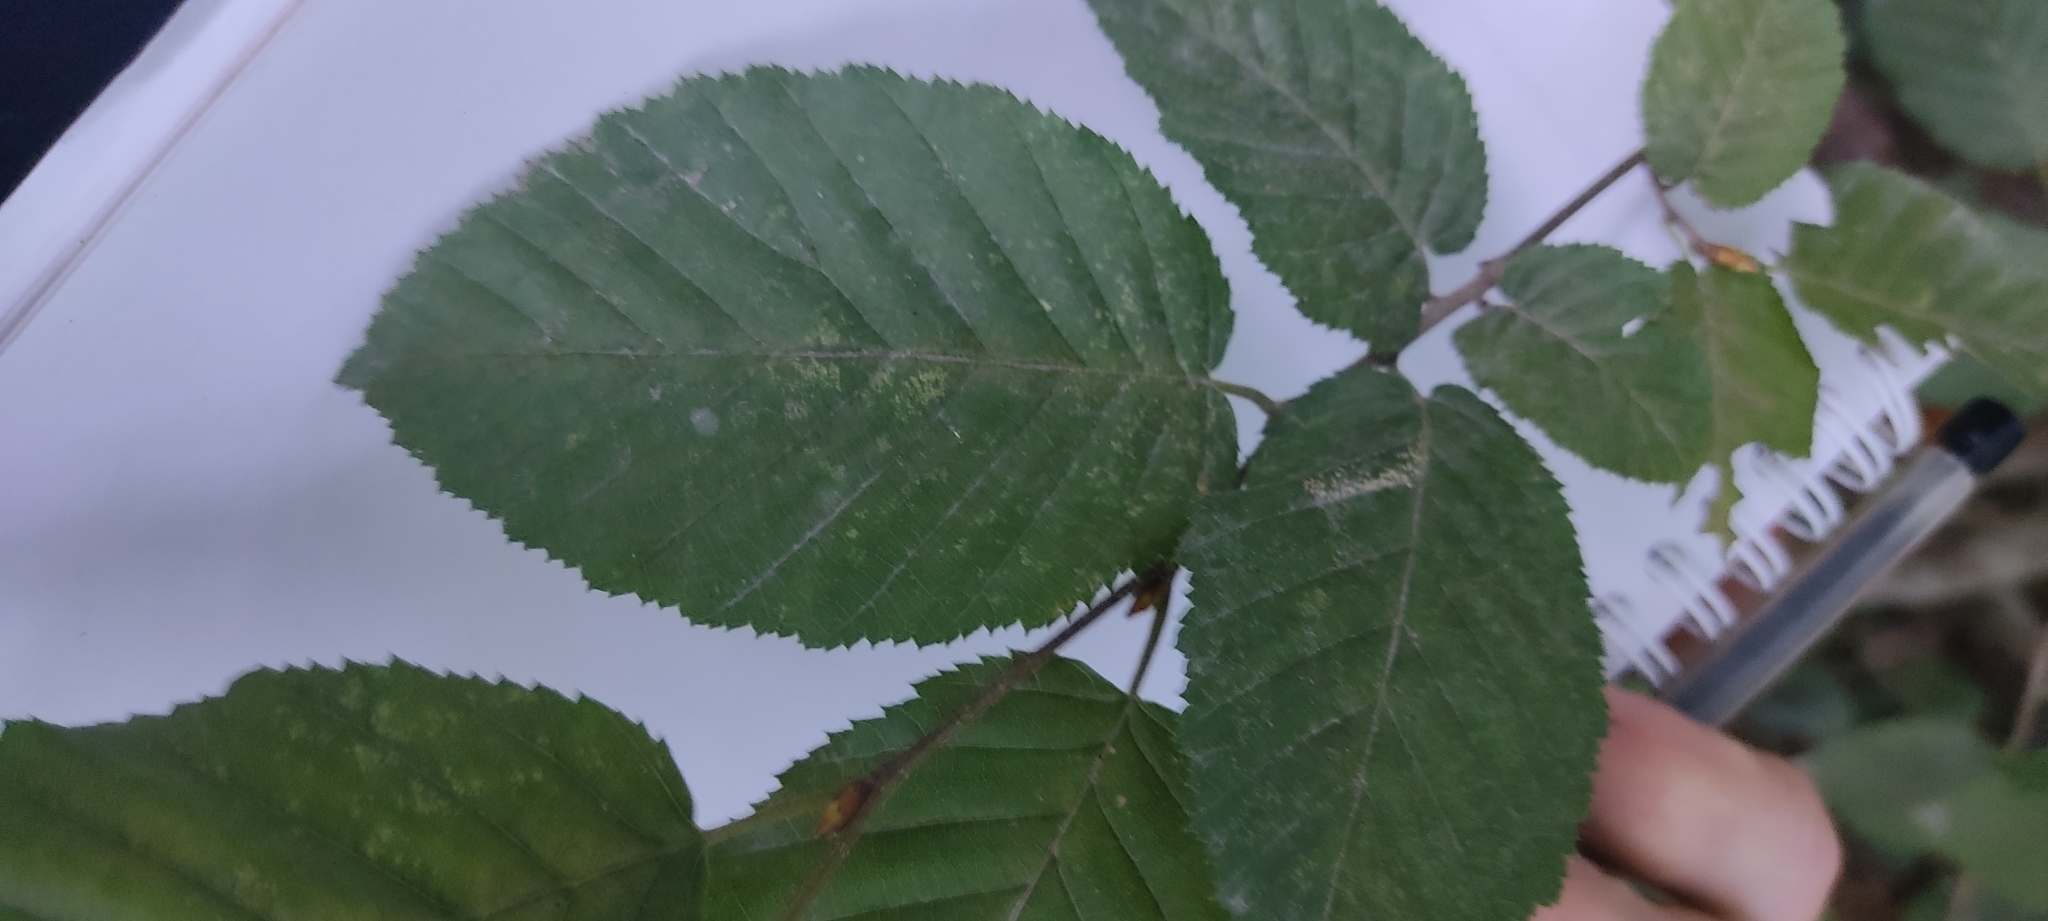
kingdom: Plantae
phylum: Tracheophyta
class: Magnoliopsida
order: Fagales
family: Betulaceae
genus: Carpinus
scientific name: Carpinus betulus
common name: Hornbeam
